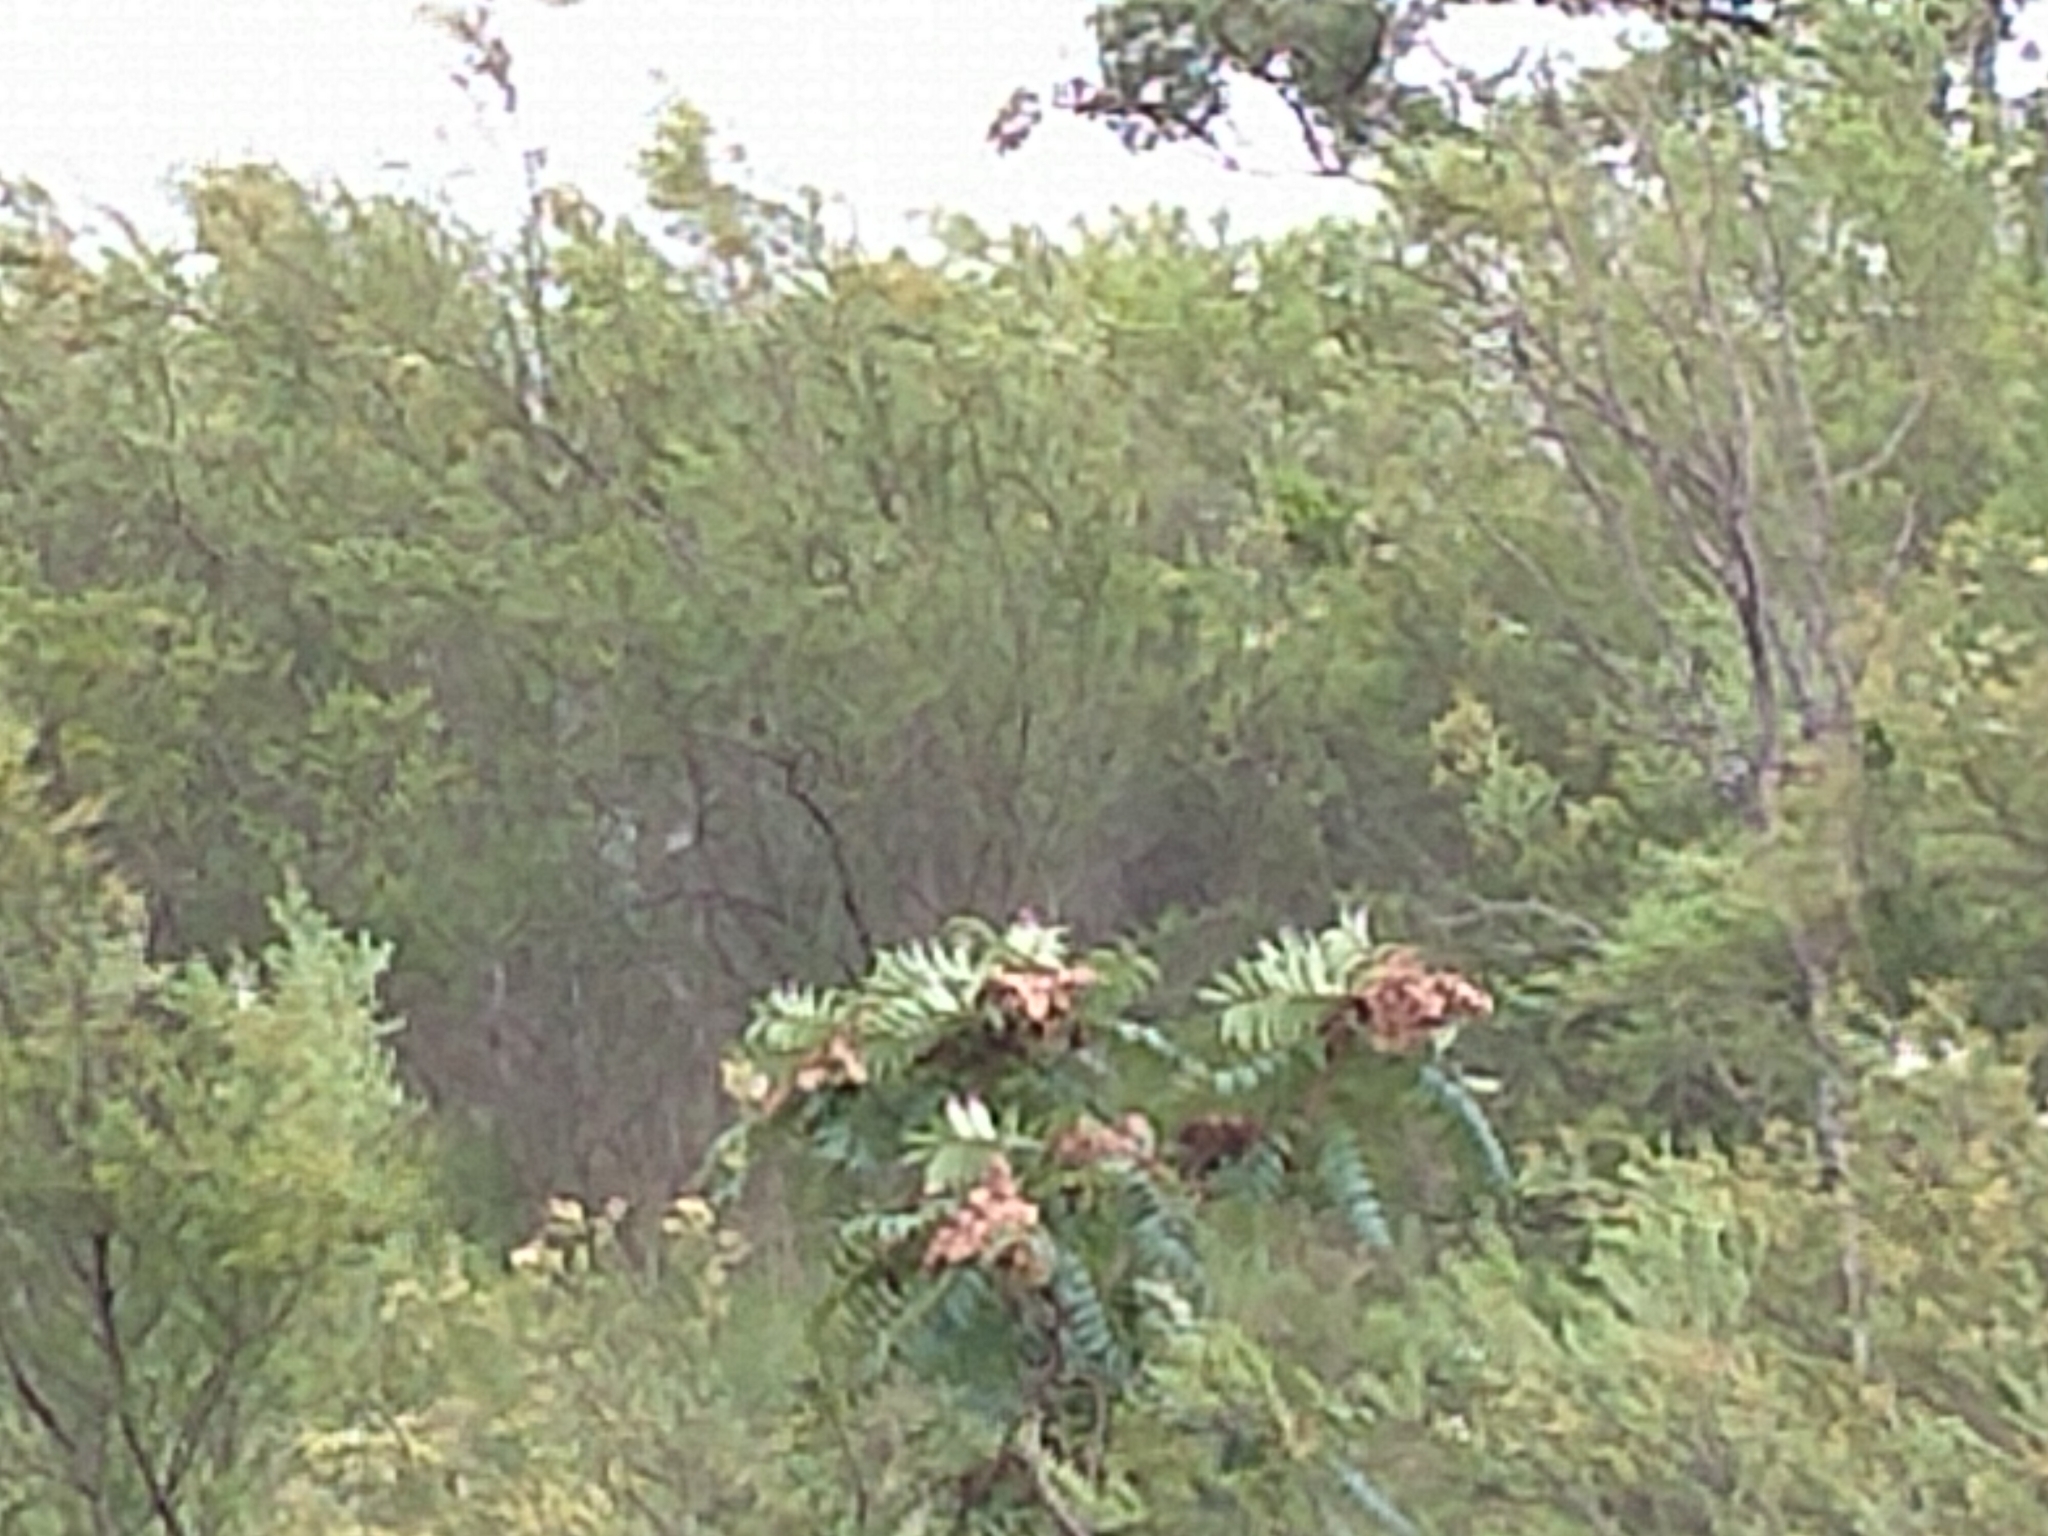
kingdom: Plantae
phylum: Tracheophyta
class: Magnoliopsida
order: Sapindales
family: Simaroubaceae
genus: Ailanthus
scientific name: Ailanthus altissima
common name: Tree-of-heaven
